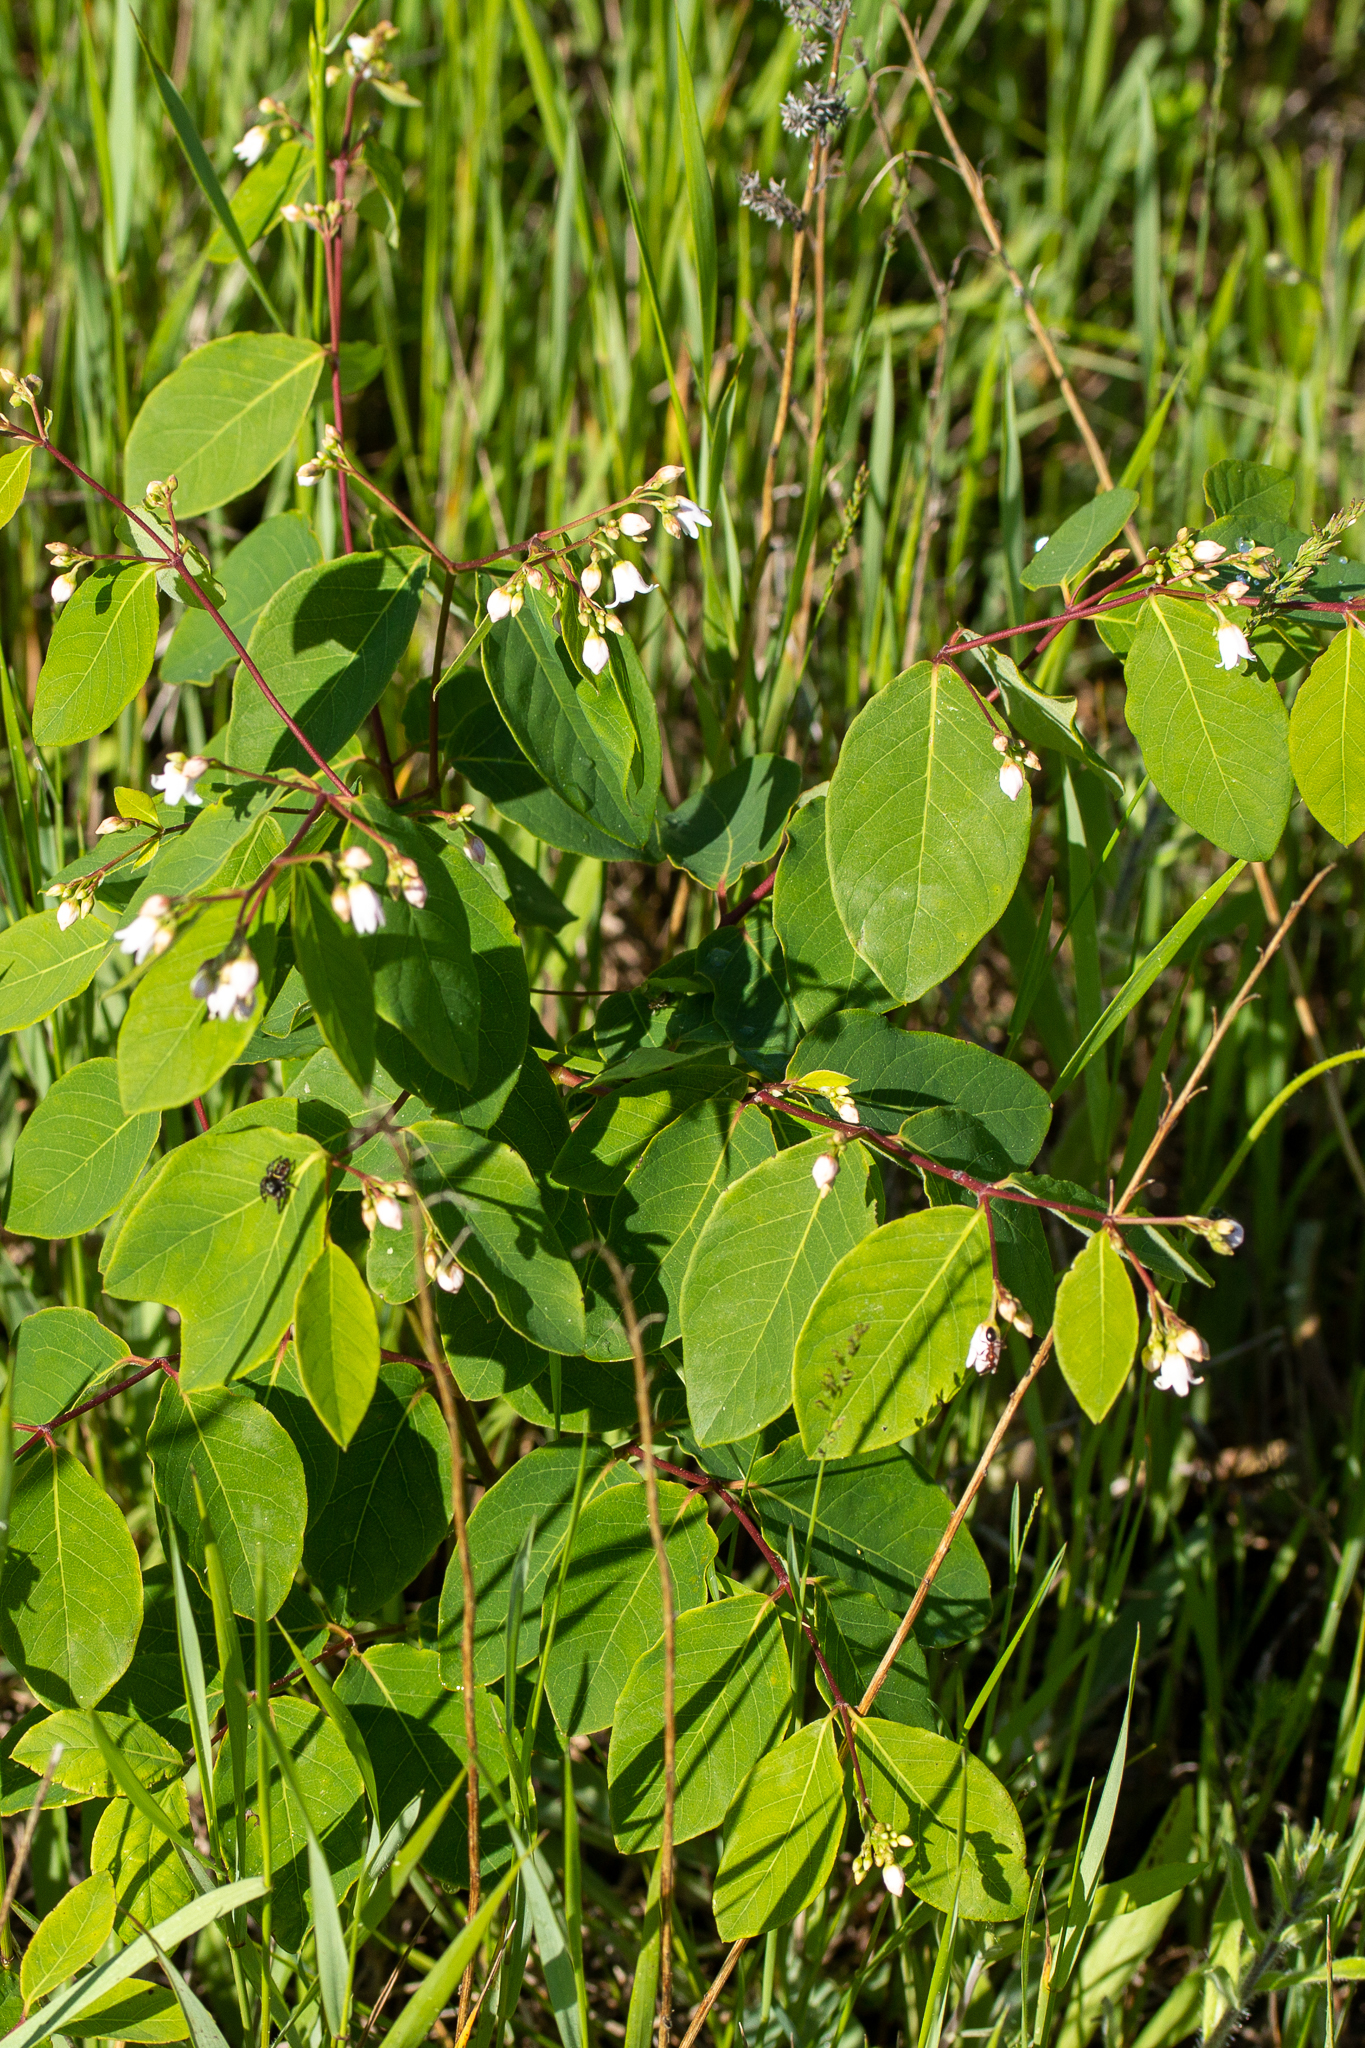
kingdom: Plantae
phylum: Tracheophyta
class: Magnoliopsida
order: Gentianales
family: Apocynaceae
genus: Apocynum
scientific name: Apocynum androsaemifolium
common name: Spreading dogbane
